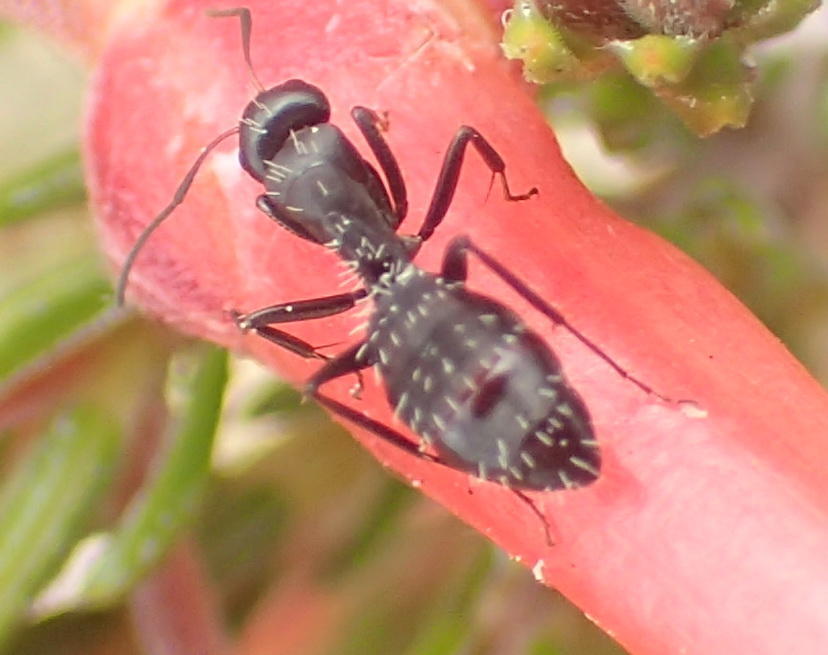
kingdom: Animalia
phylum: Arthropoda
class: Insecta
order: Hymenoptera
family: Formicidae
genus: Camponotus
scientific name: Camponotus niveosetosus
